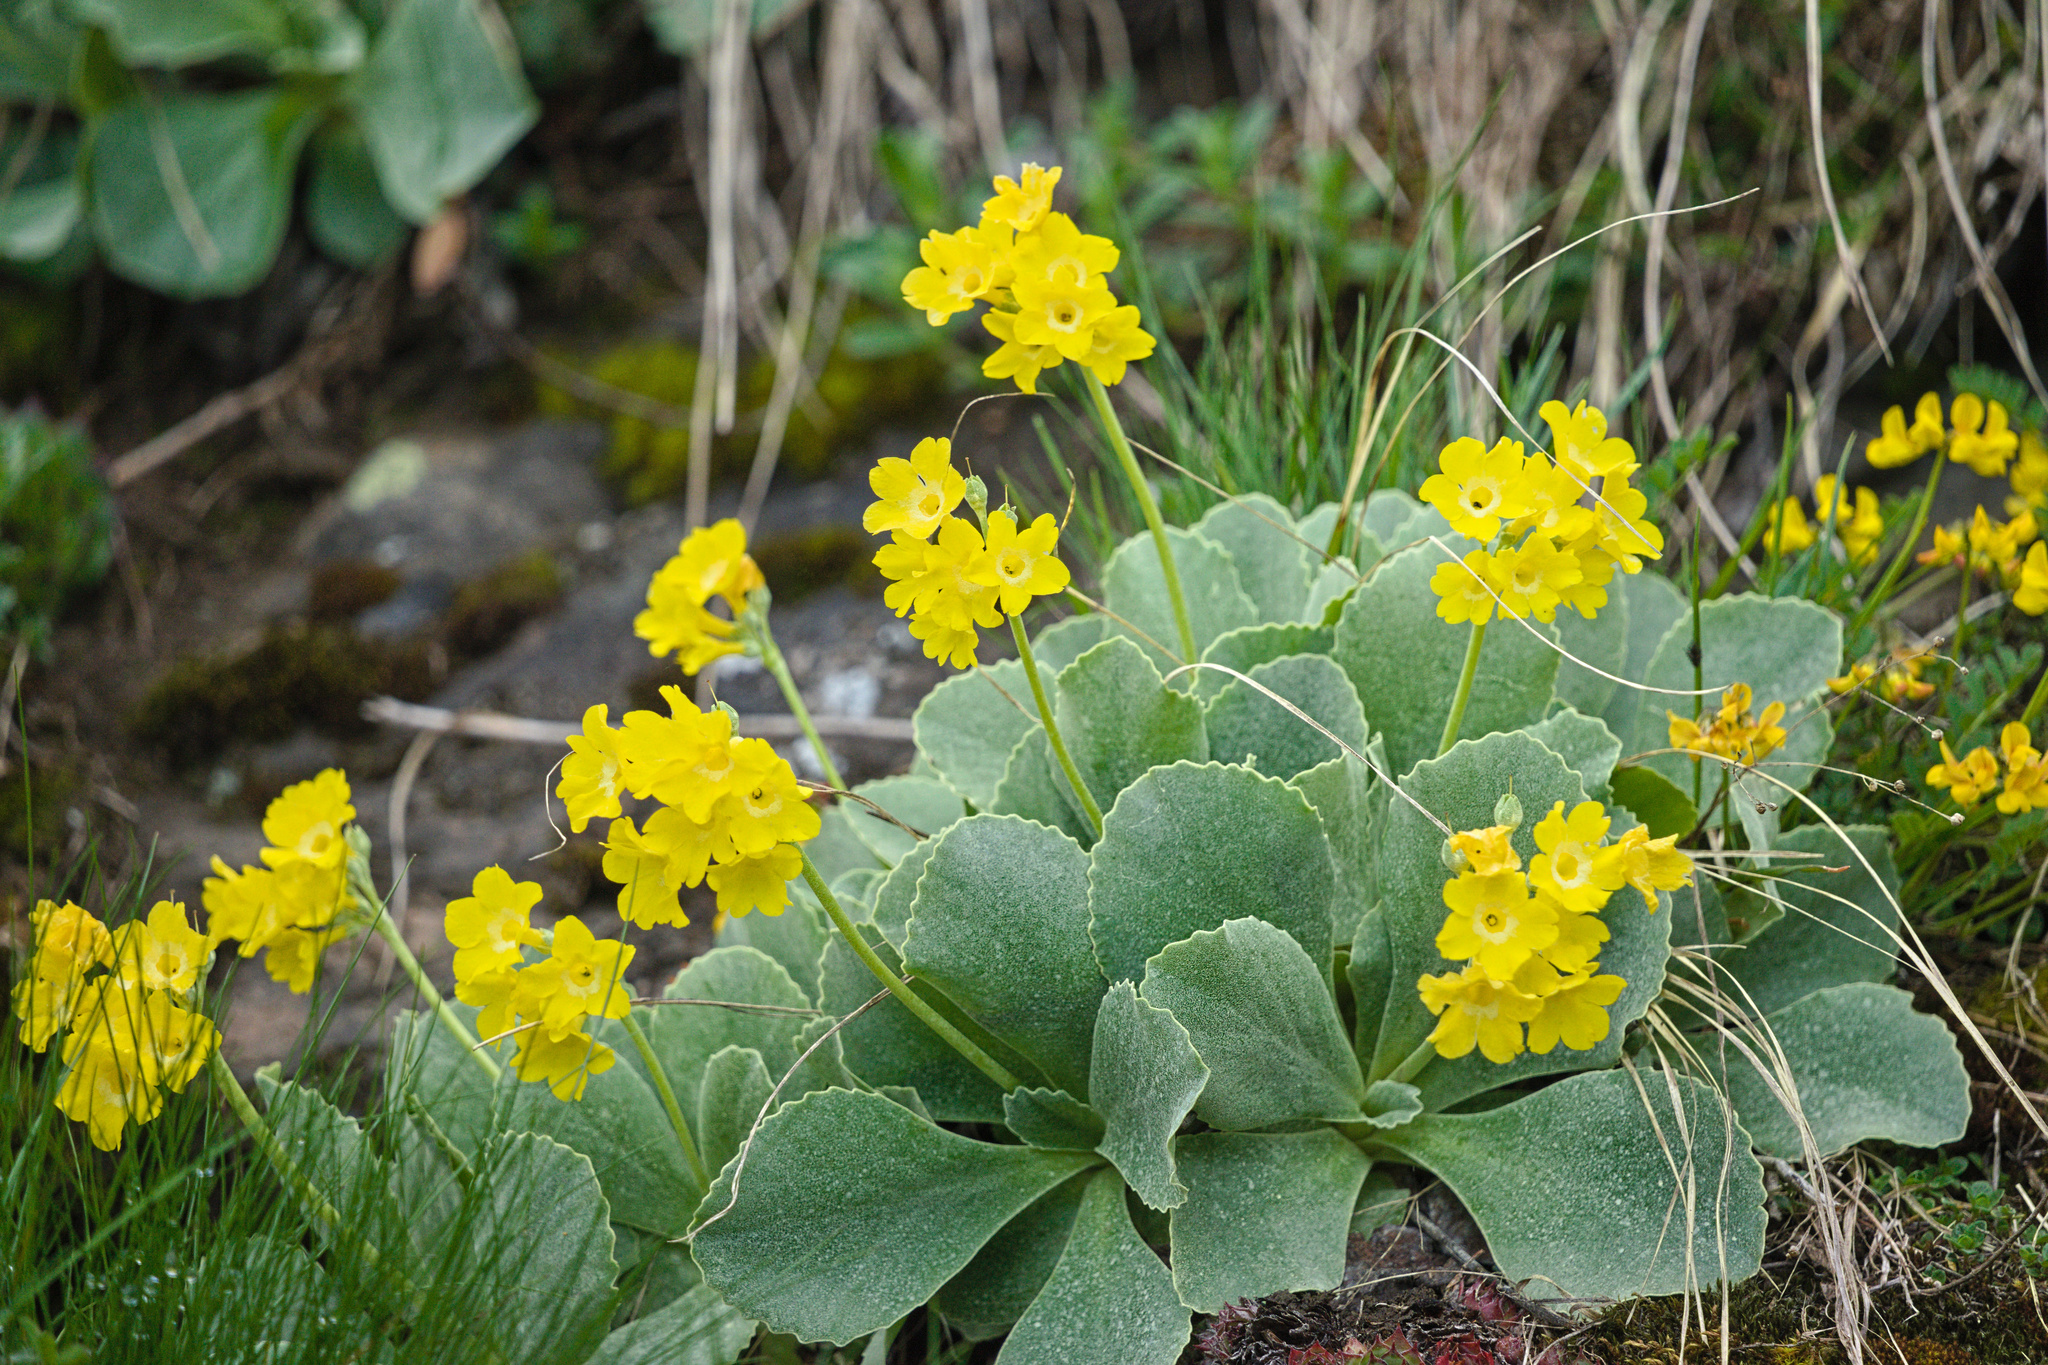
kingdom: Plantae
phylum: Tracheophyta
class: Magnoliopsida
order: Ericales
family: Primulaceae
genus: Primula
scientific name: Primula auricula
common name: Auricula
